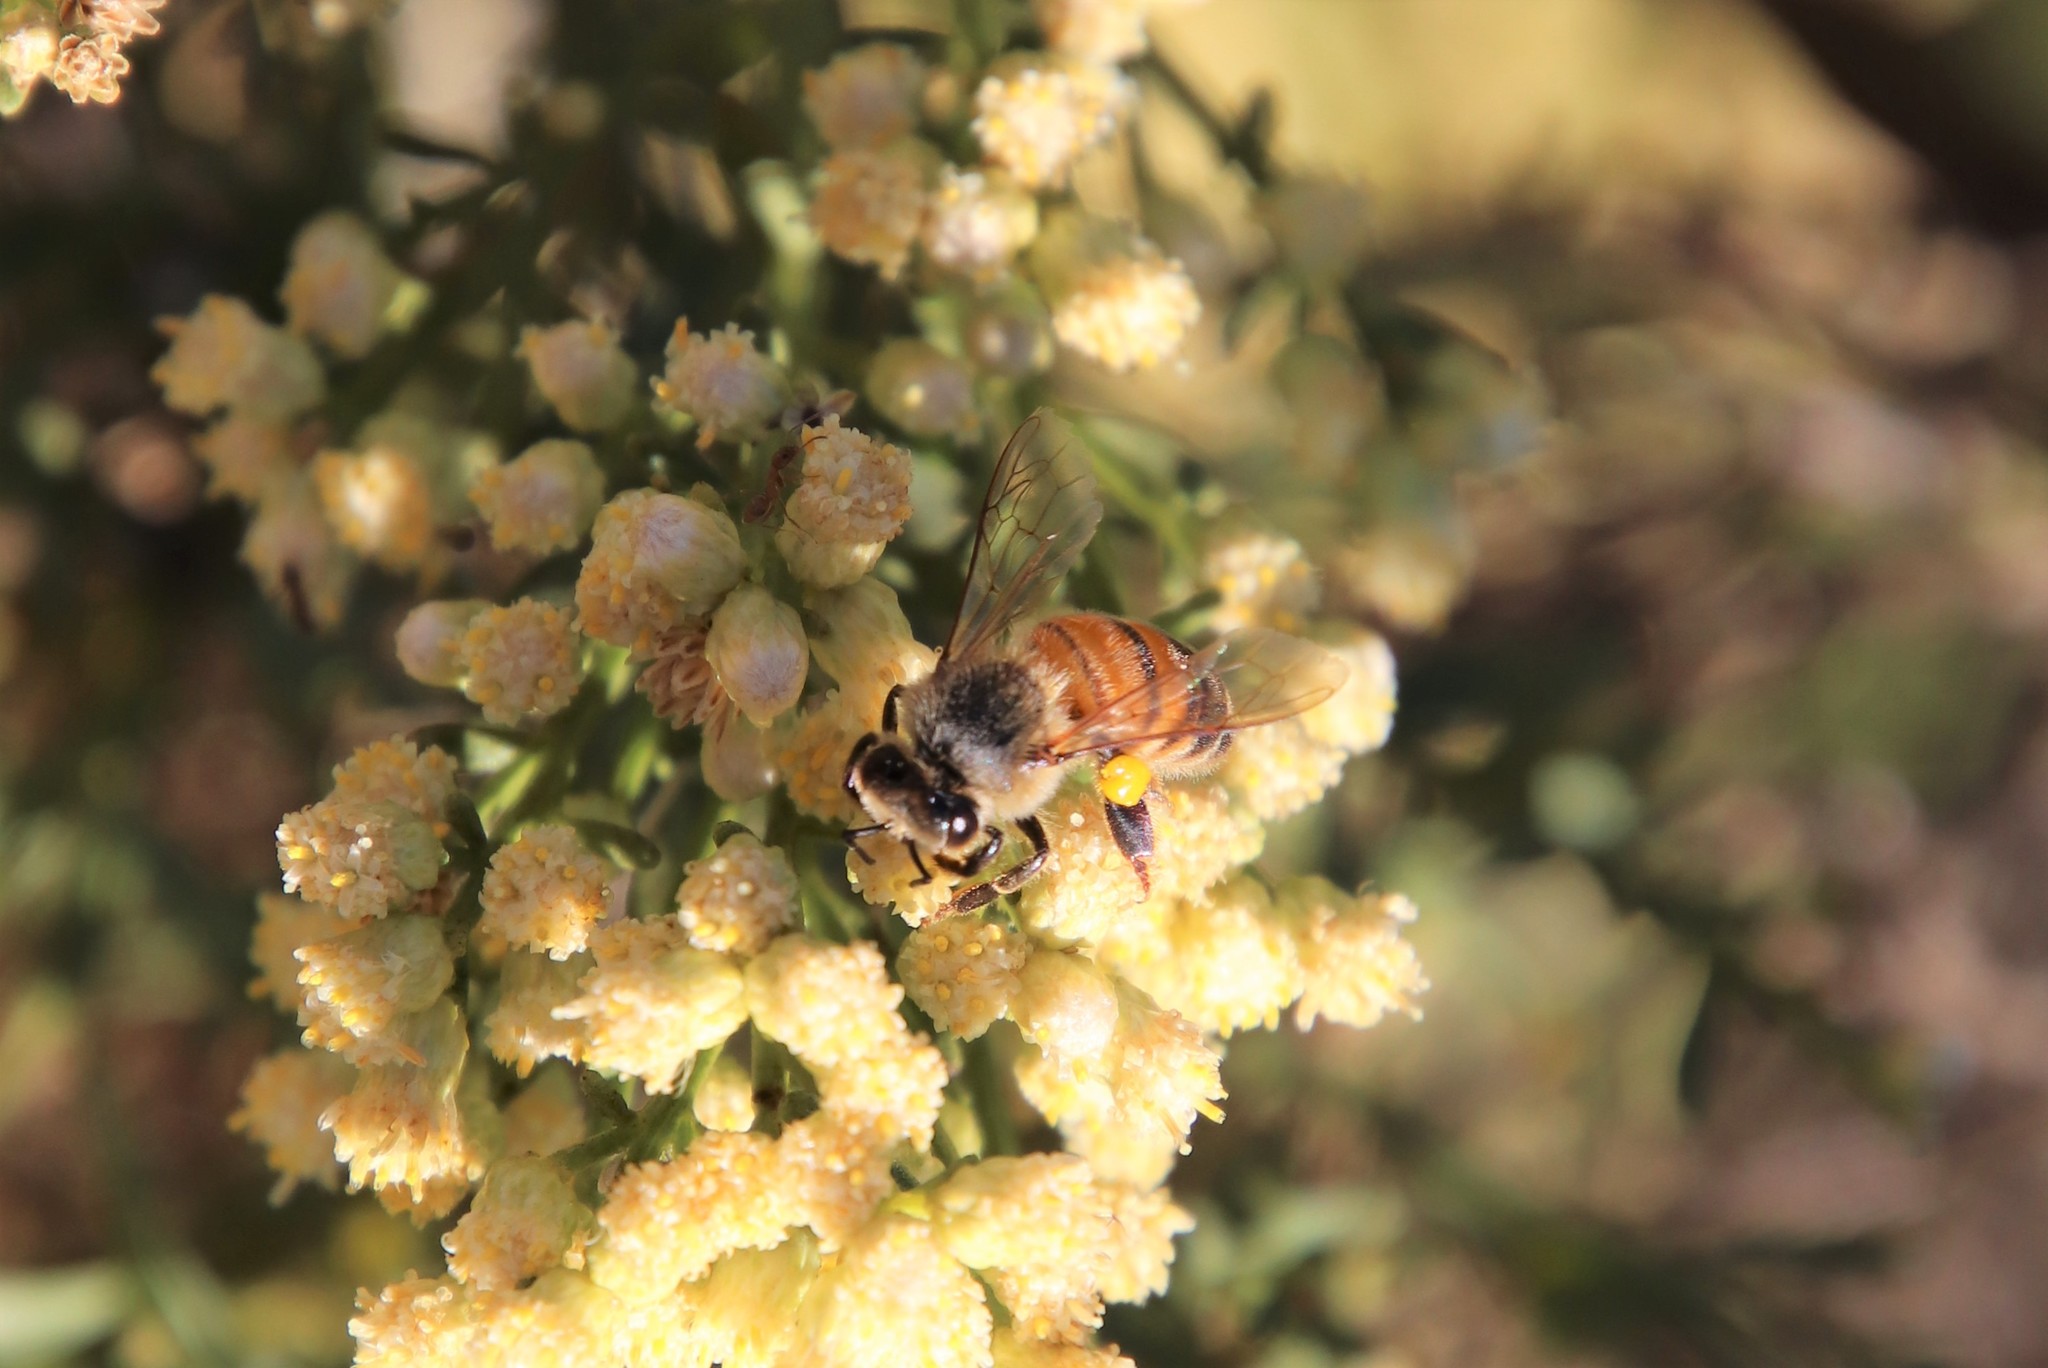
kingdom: Animalia
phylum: Arthropoda
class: Insecta
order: Hymenoptera
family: Apidae
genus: Apis
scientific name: Apis mellifera
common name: Honey bee
